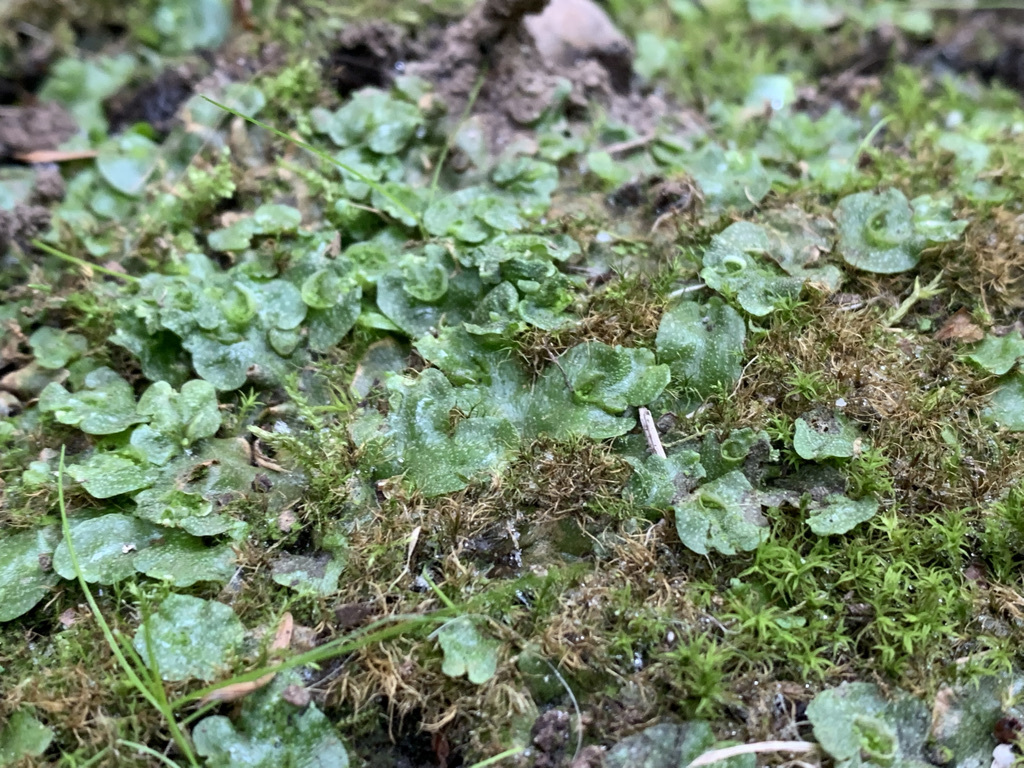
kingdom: Plantae
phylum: Marchantiophyta
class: Marchantiopsida
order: Lunulariales
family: Lunulariaceae
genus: Lunularia
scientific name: Lunularia cruciata
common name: Crescent-cup liverwort
